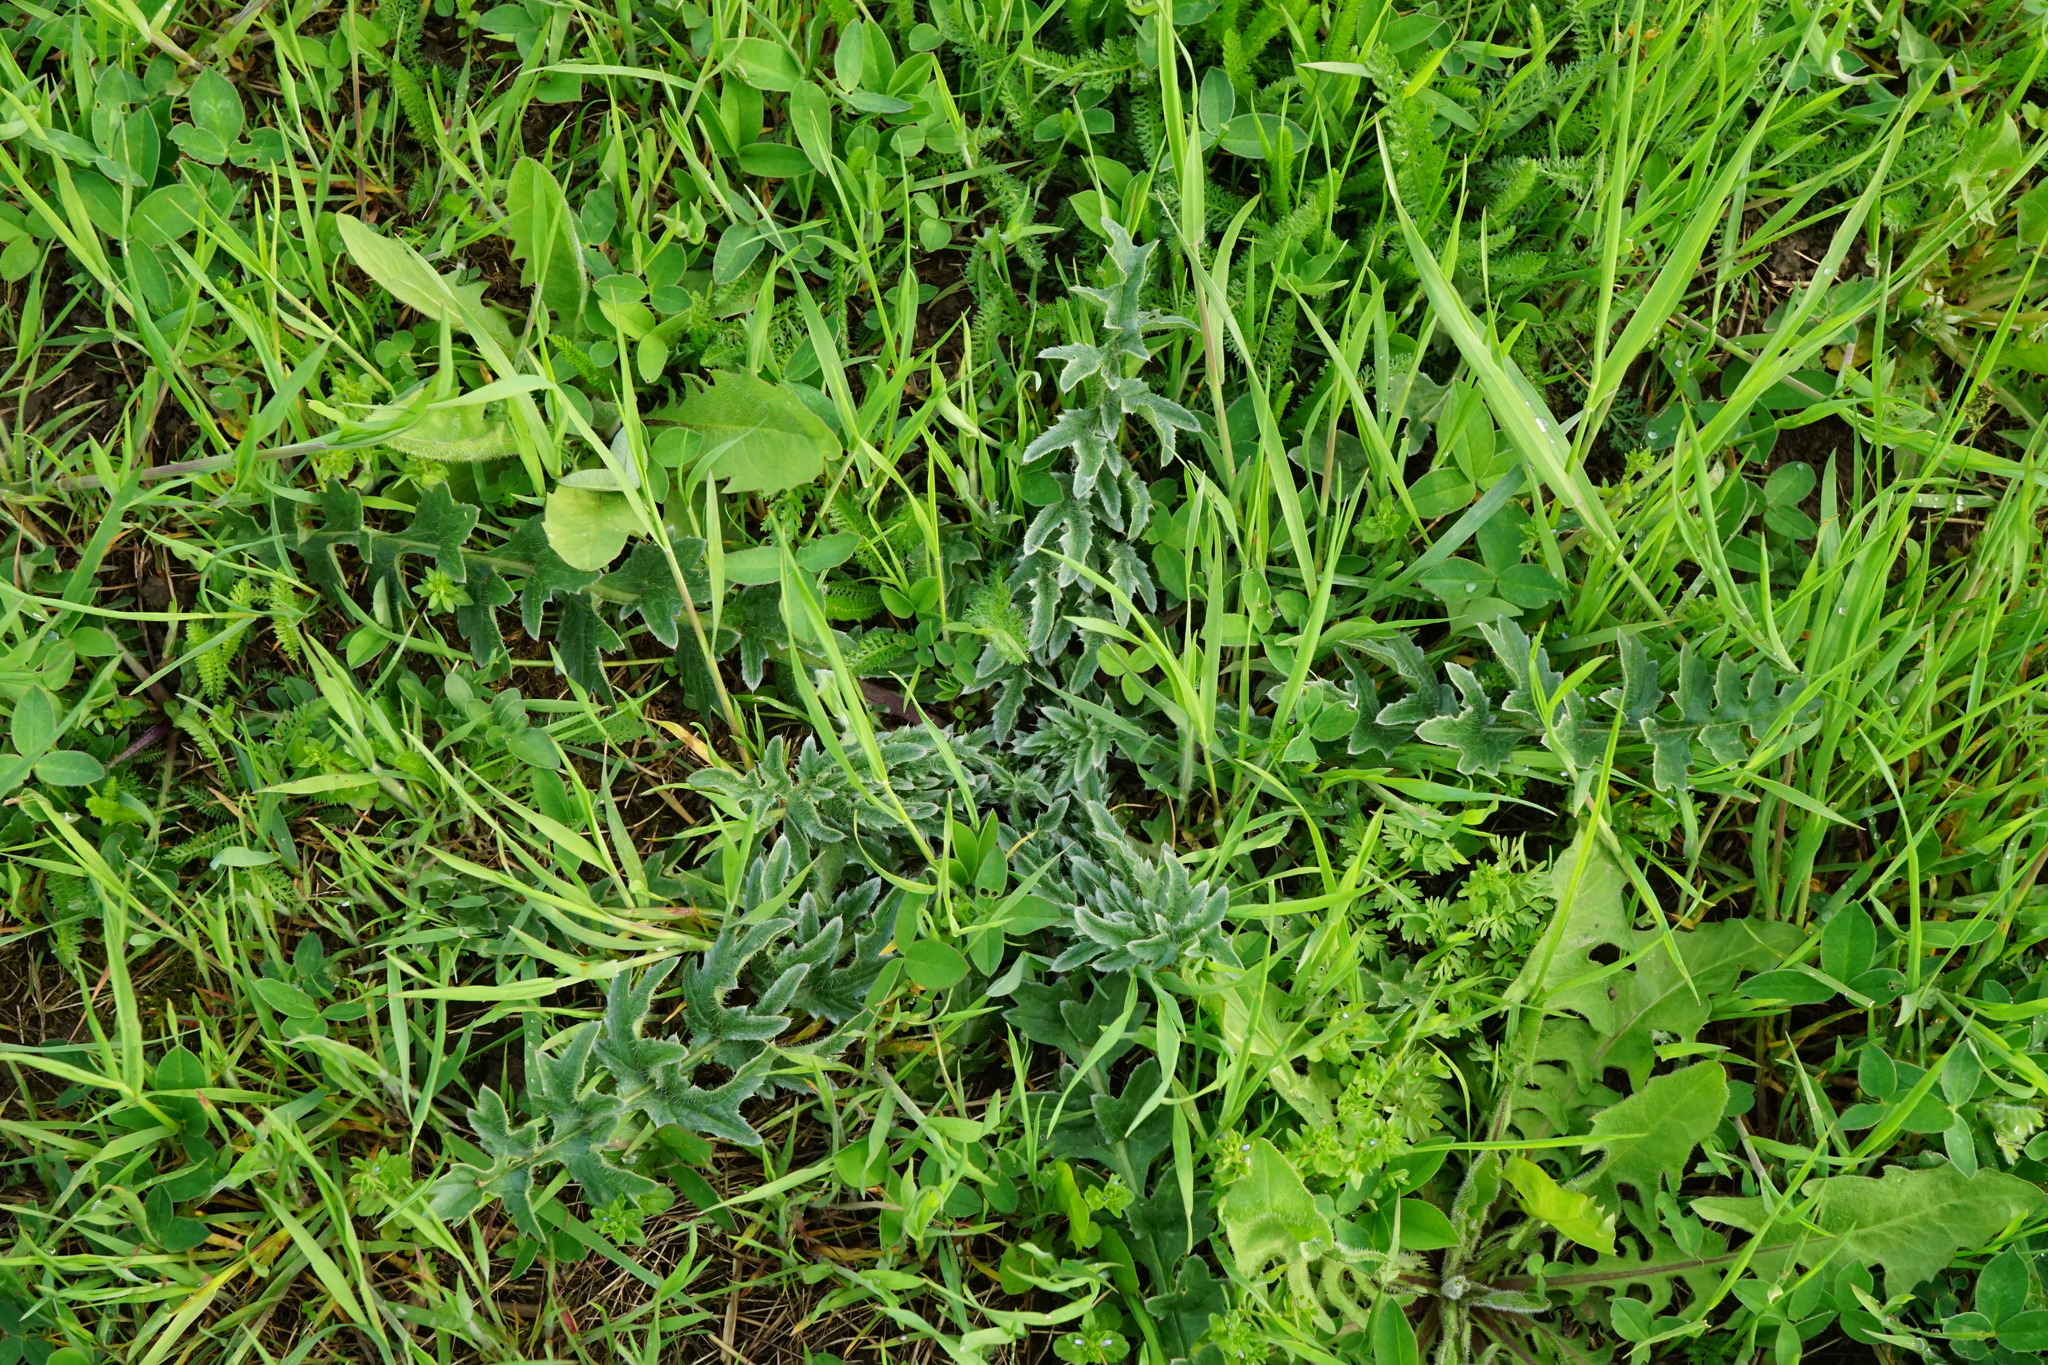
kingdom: Plantae
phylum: Tracheophyta
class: Magnoliopsida
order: Asterales
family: Asteraceae
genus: Carduus
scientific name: Carduus acanthoides
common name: Plumeless thistle
